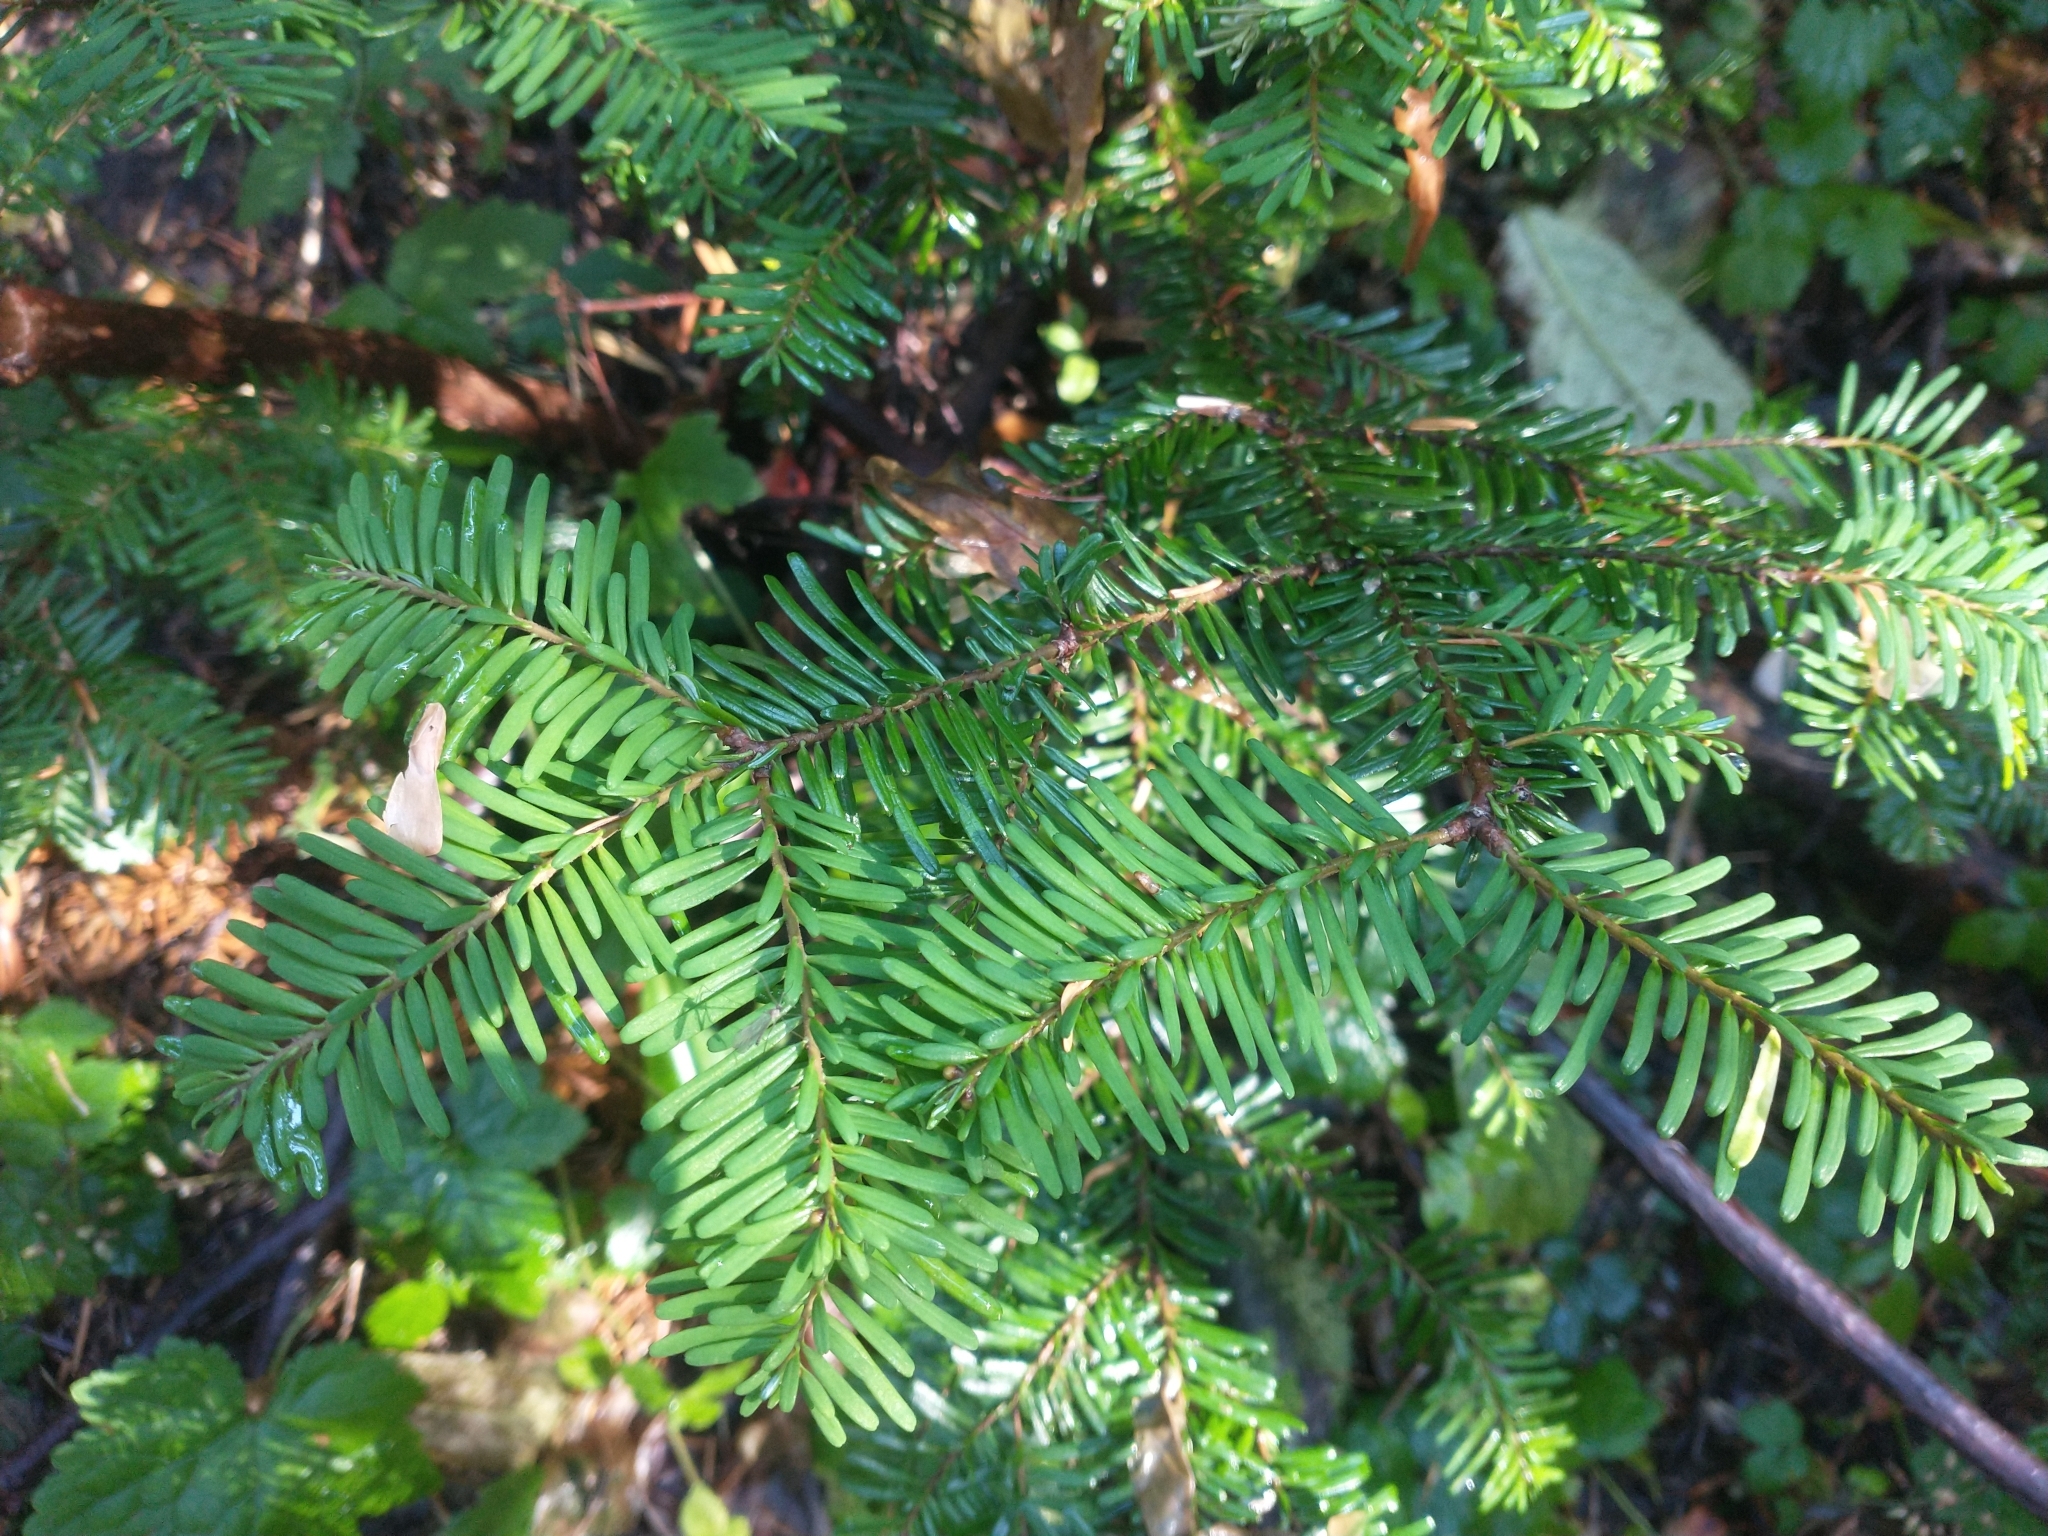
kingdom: Plantae
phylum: Tracheophyta
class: Pinopsida
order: Pinales
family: Pinaceae
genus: Abies
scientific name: Abies amabilis
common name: Pacific silver fir
